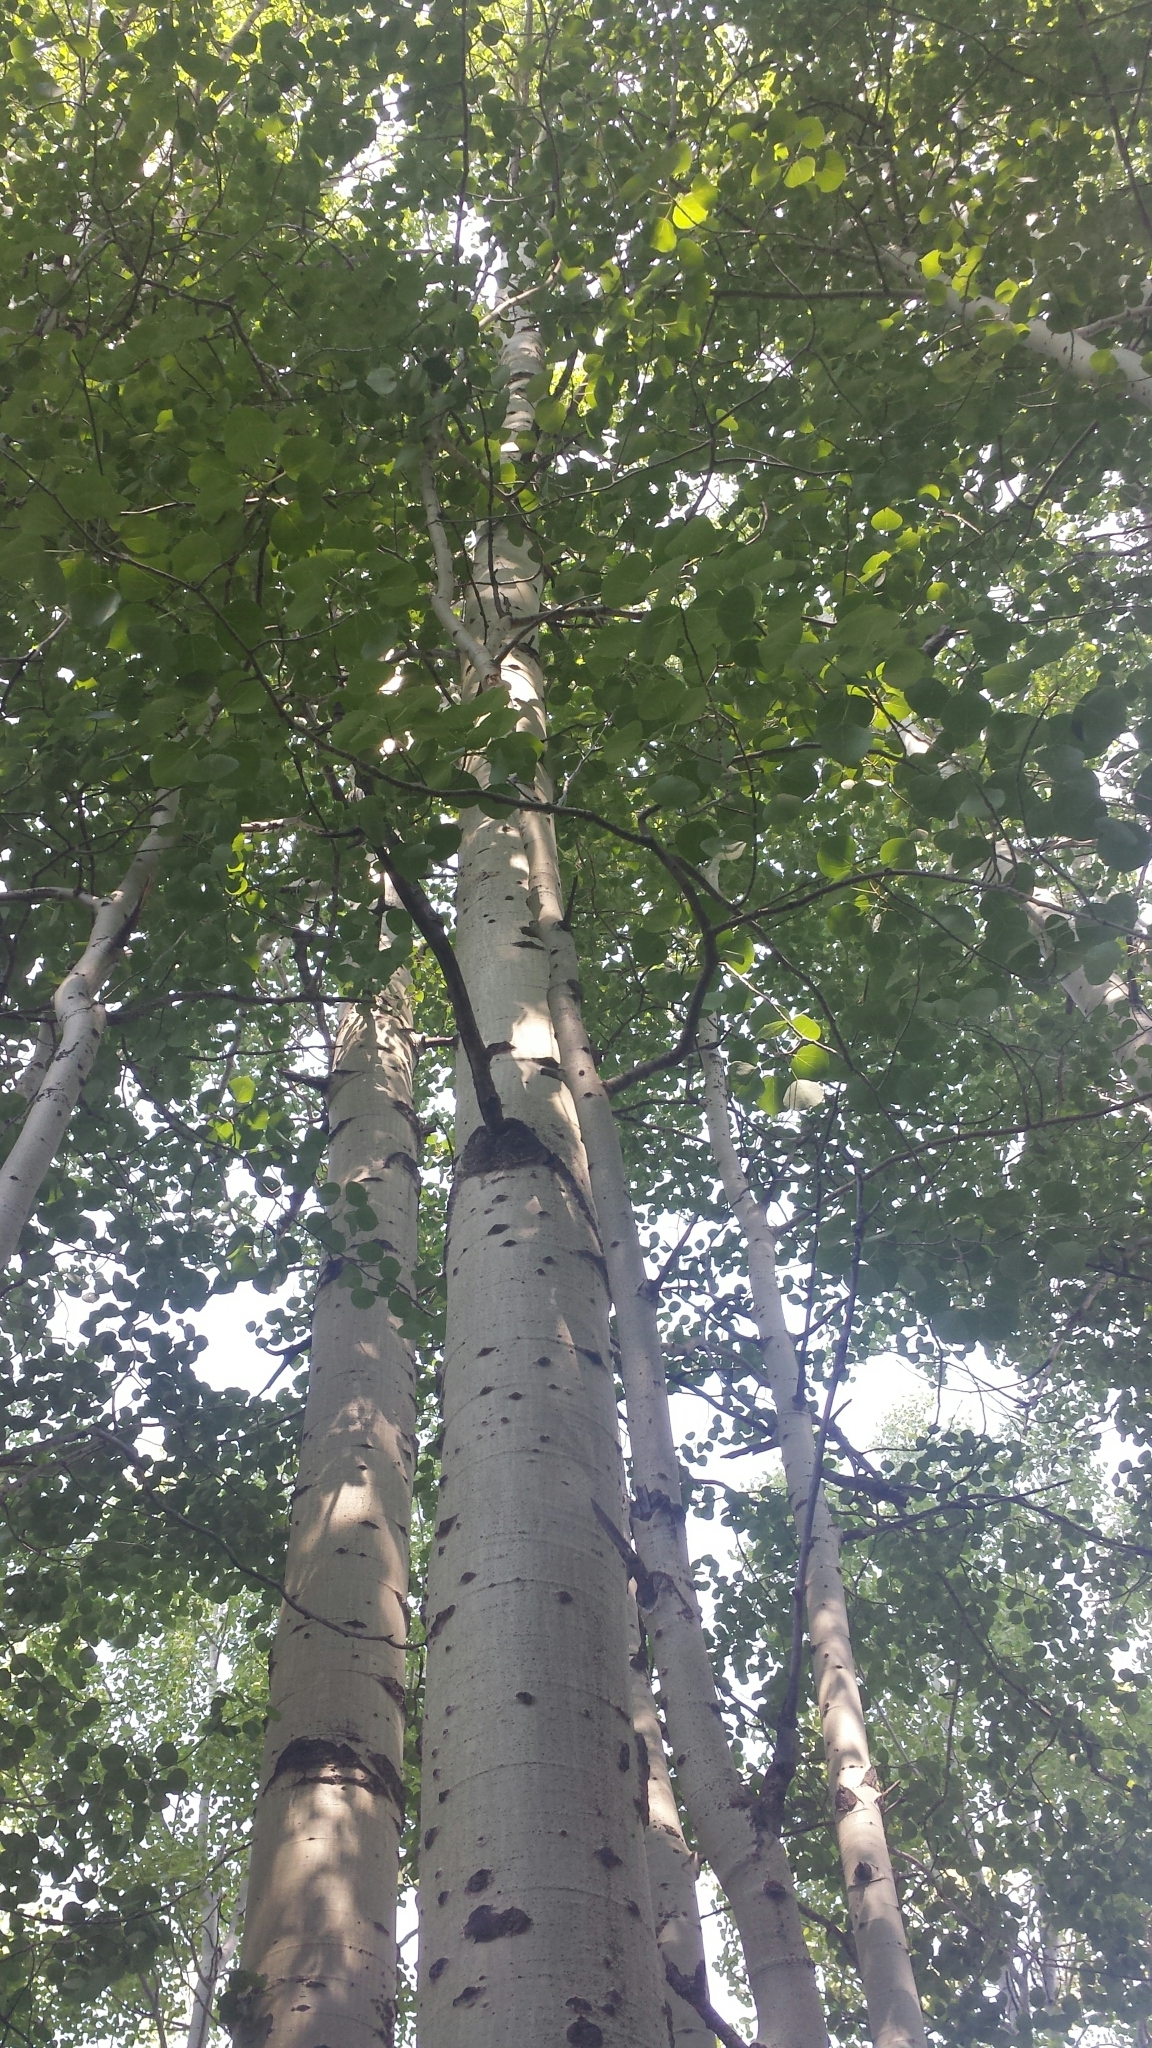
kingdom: Plantae
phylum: Tracheophyta
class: Magnoliopsida
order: Malpighiales
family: Salicaceae
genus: Populus
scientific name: Populus tremuloides
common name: Quaking aspen
